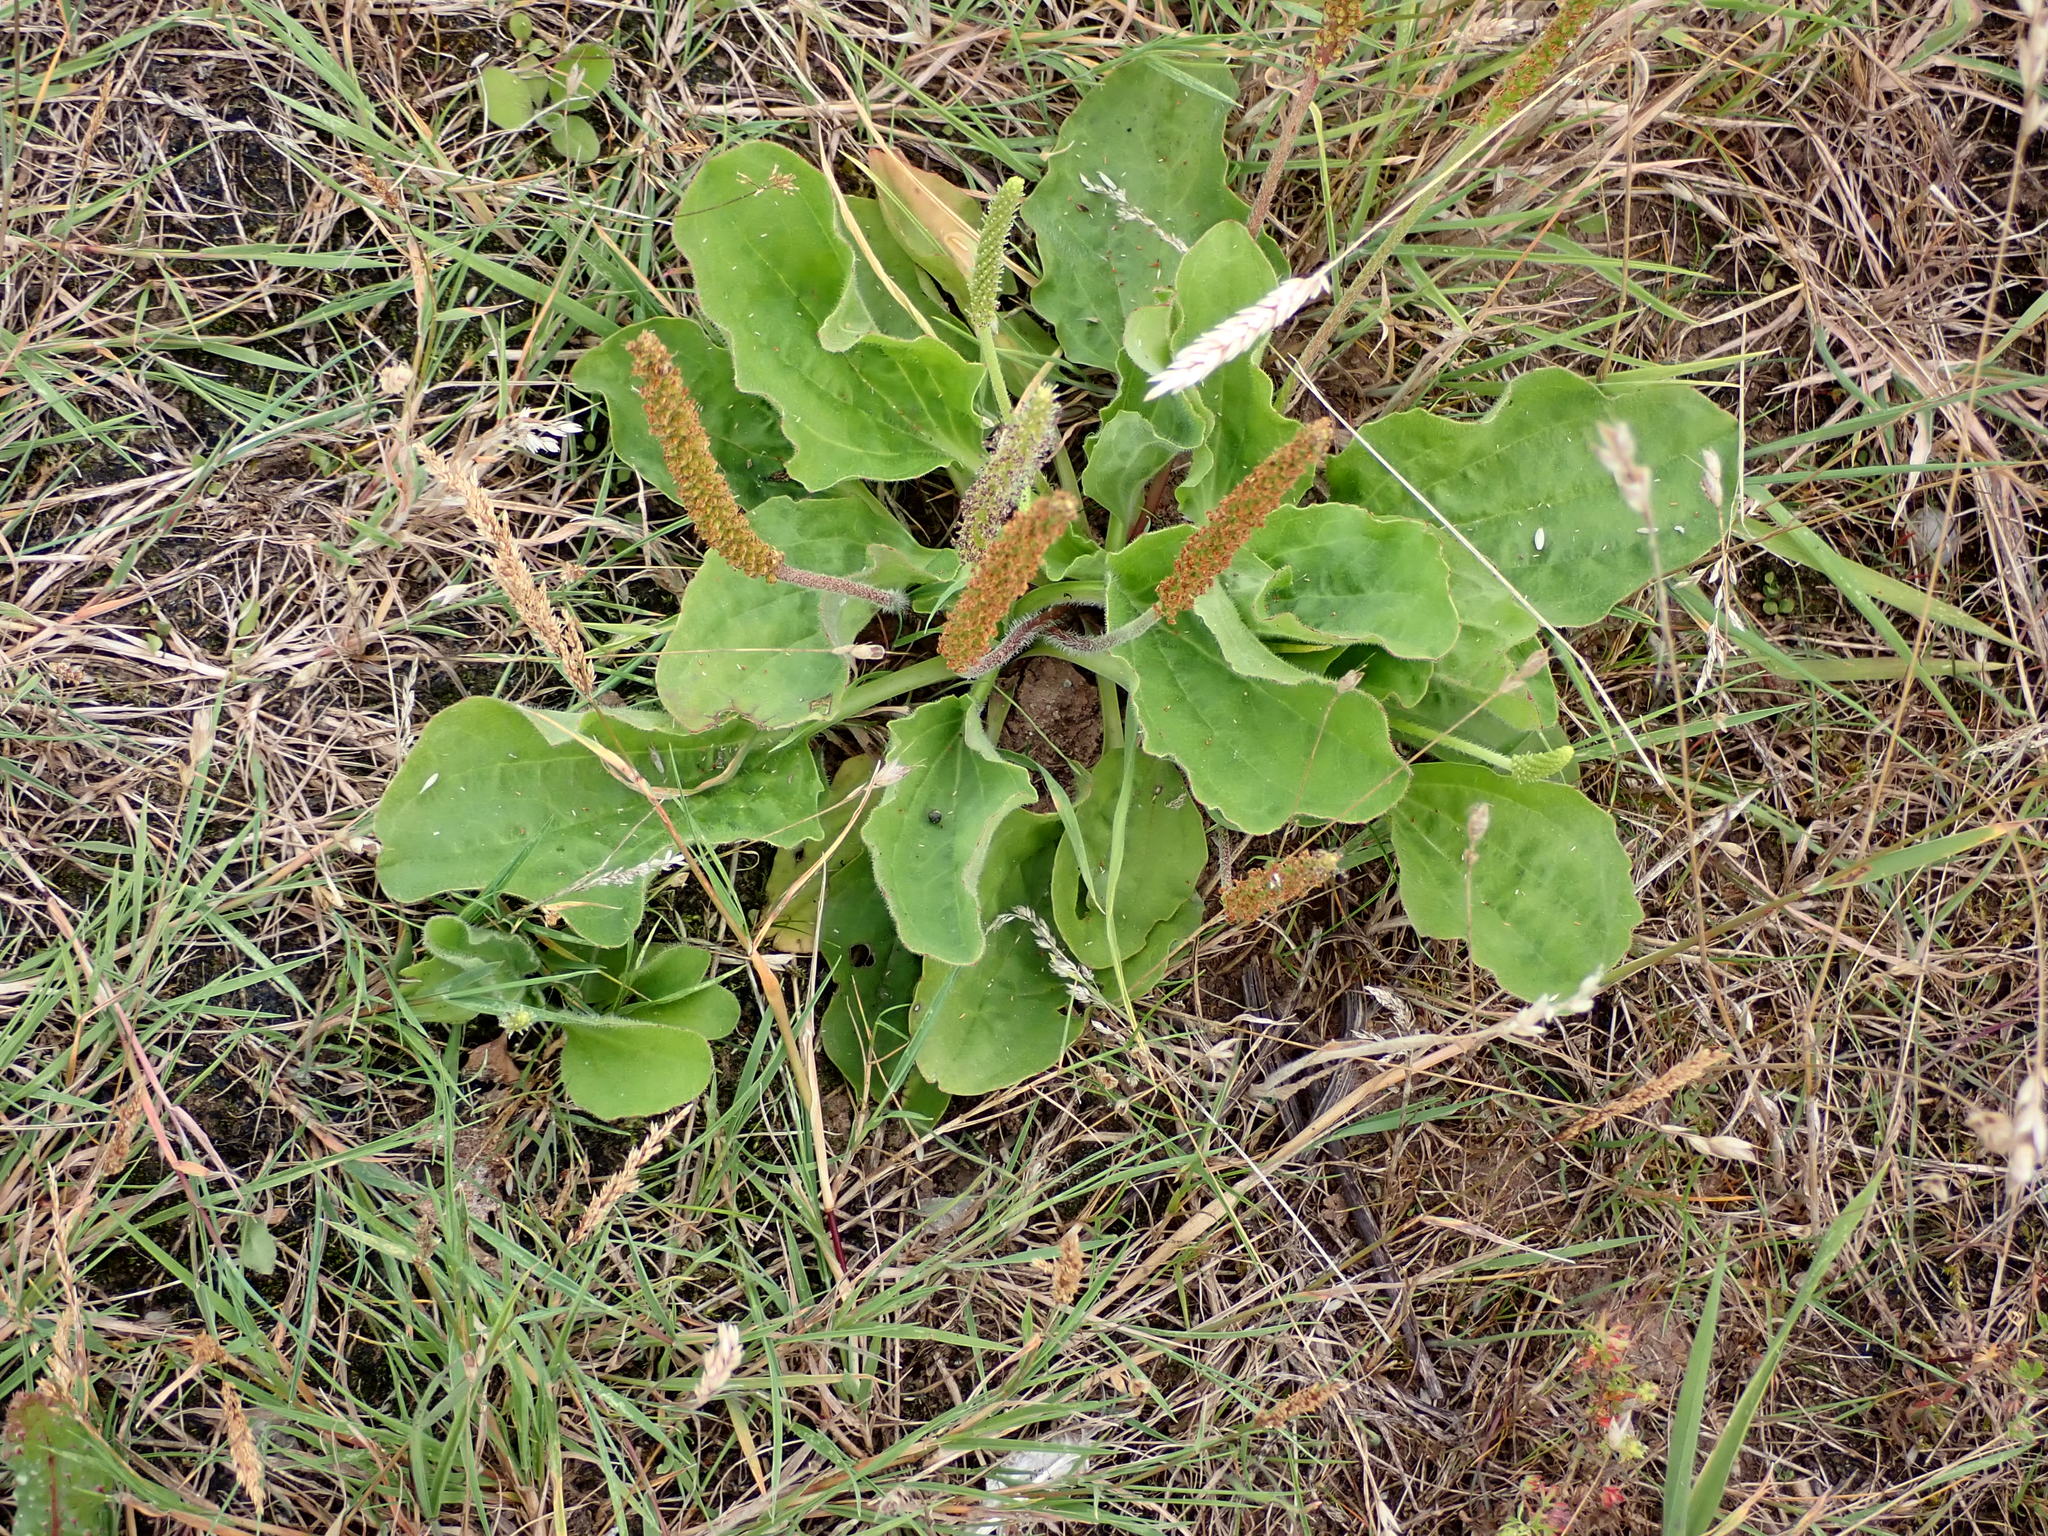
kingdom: Plantae
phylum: Tracheophyta
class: Magnoliopsida
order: Lamiales
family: Plantaginaceae
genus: Plantago
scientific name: Plantago major
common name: Common plantain
